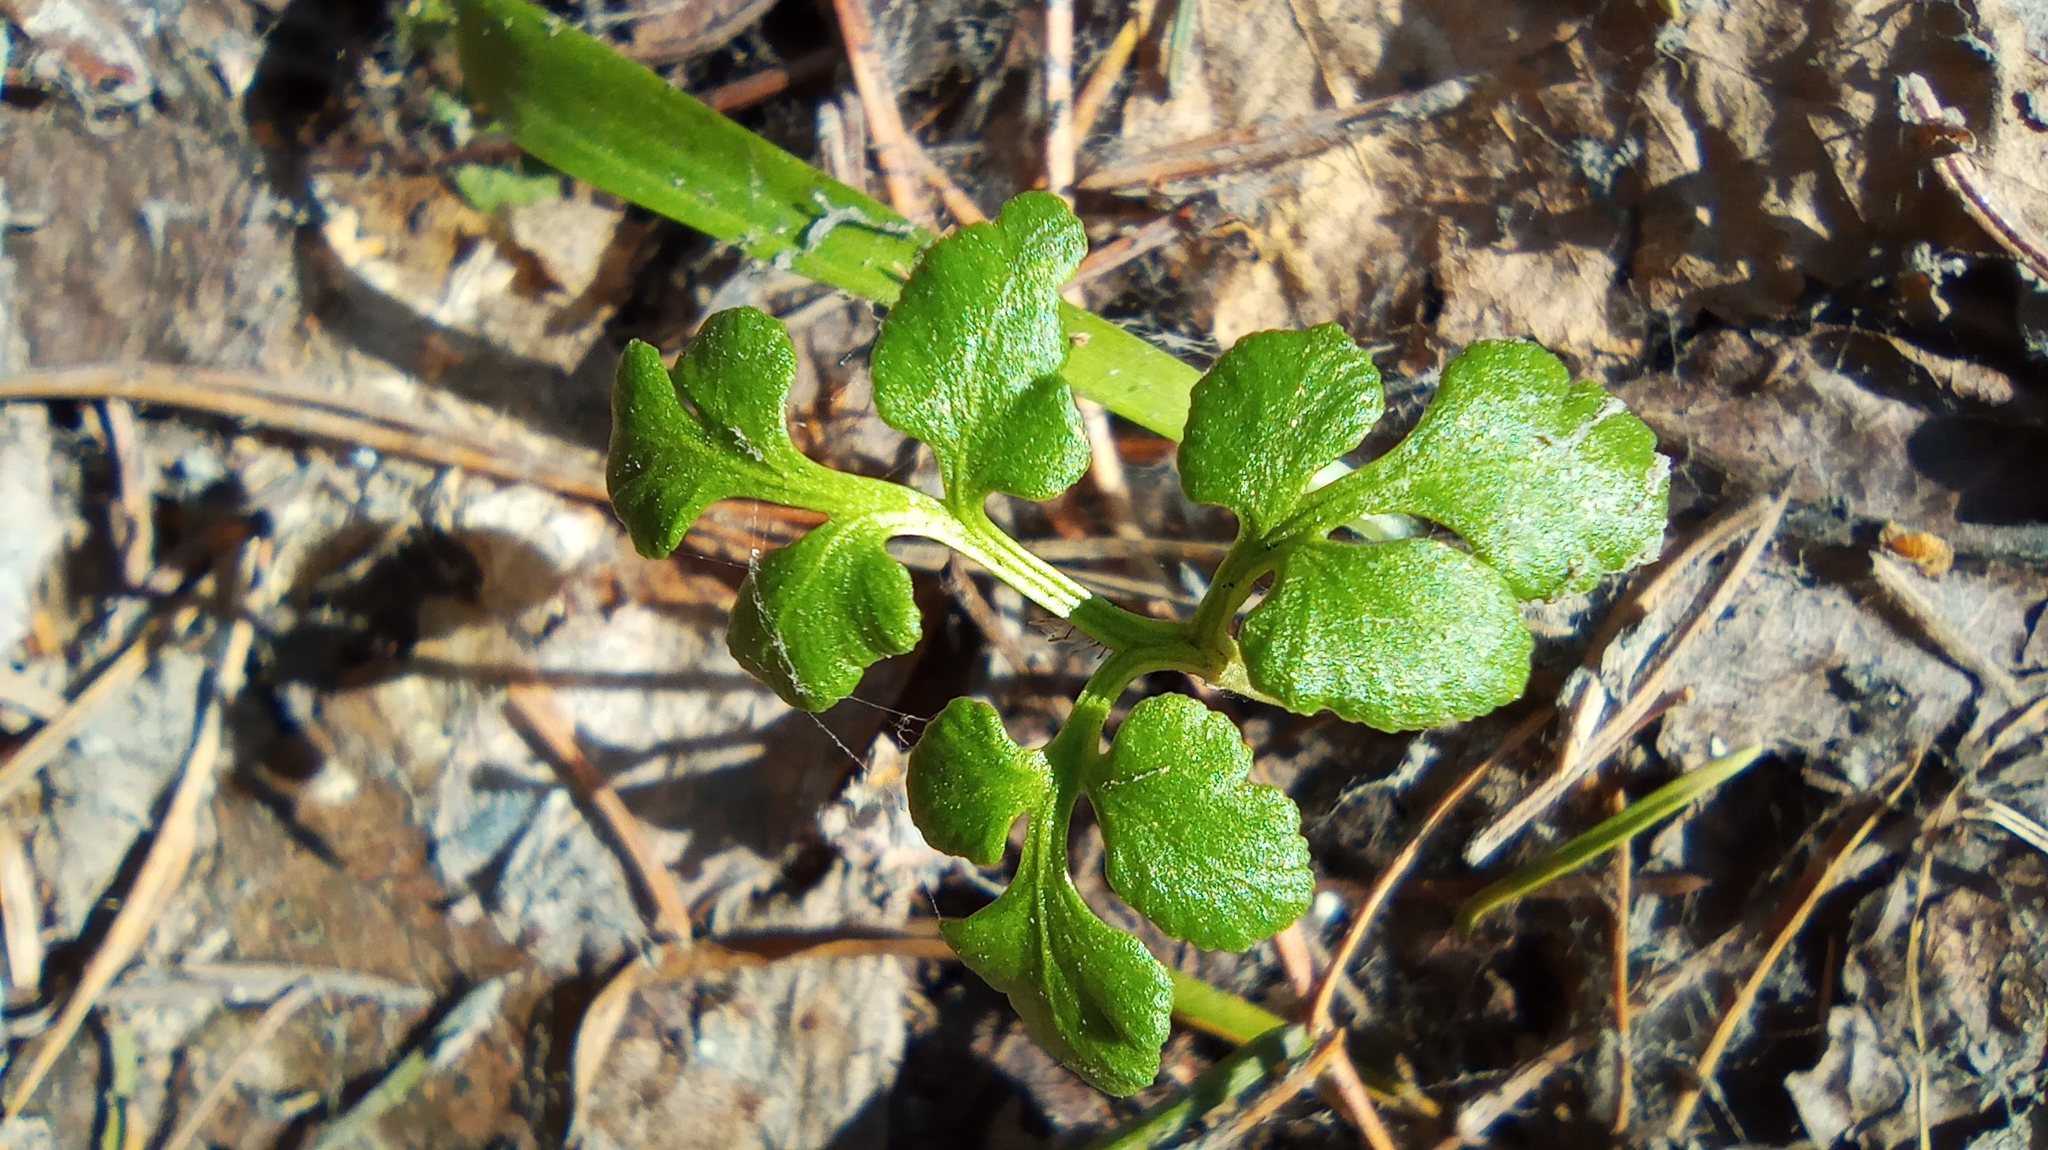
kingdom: Plantae
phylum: Tracheophyta
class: Polypodiopsida
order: Ophioglossales
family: Ophioglossaceae
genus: Sceptridium
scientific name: Sceptridium multifidum
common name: Leathery grape fern
